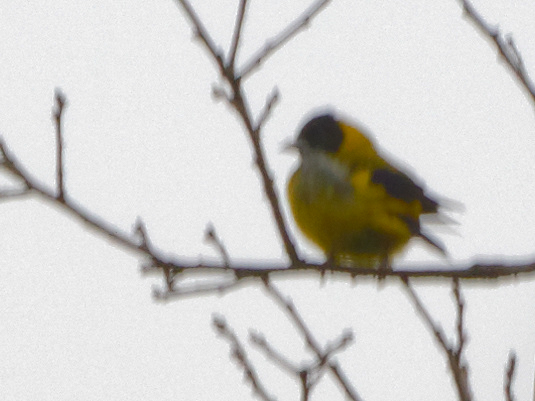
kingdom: Animalia
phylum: Chordata
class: Aves
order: Passeriformes
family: Fringillidae
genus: Spinus
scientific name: Spinus notatus
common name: Black-headed siskin
